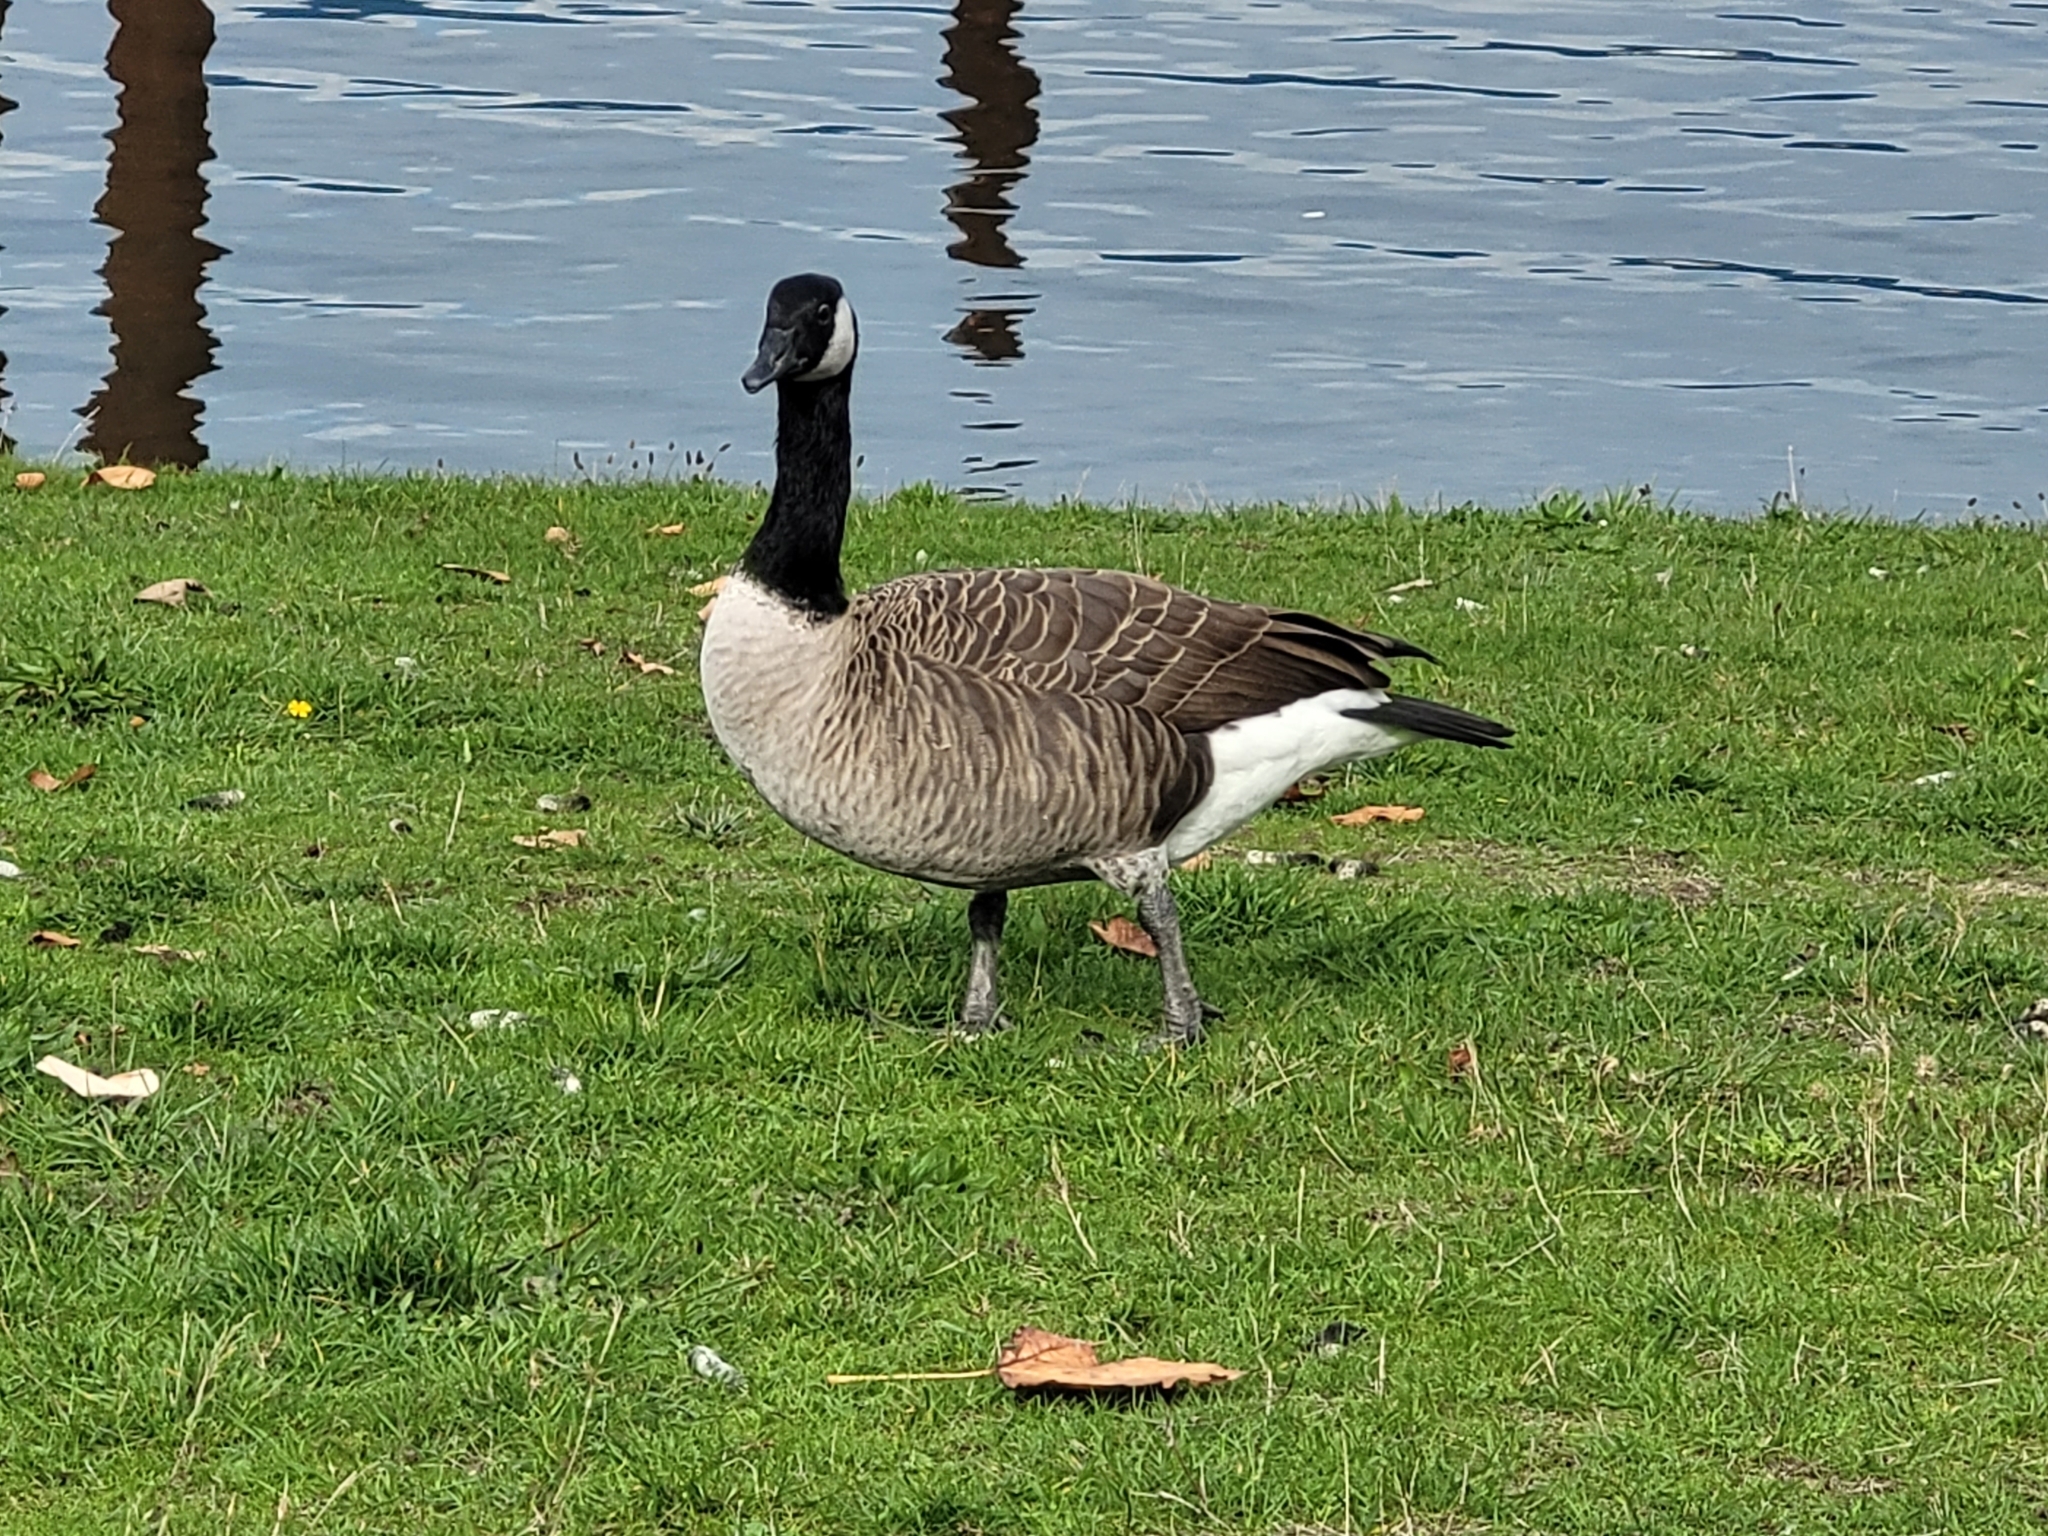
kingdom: Animalia
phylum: Chordata
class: Aves
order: Anseriformes
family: Anatidae
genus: Branta
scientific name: Branta canadensis
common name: Canada goose
